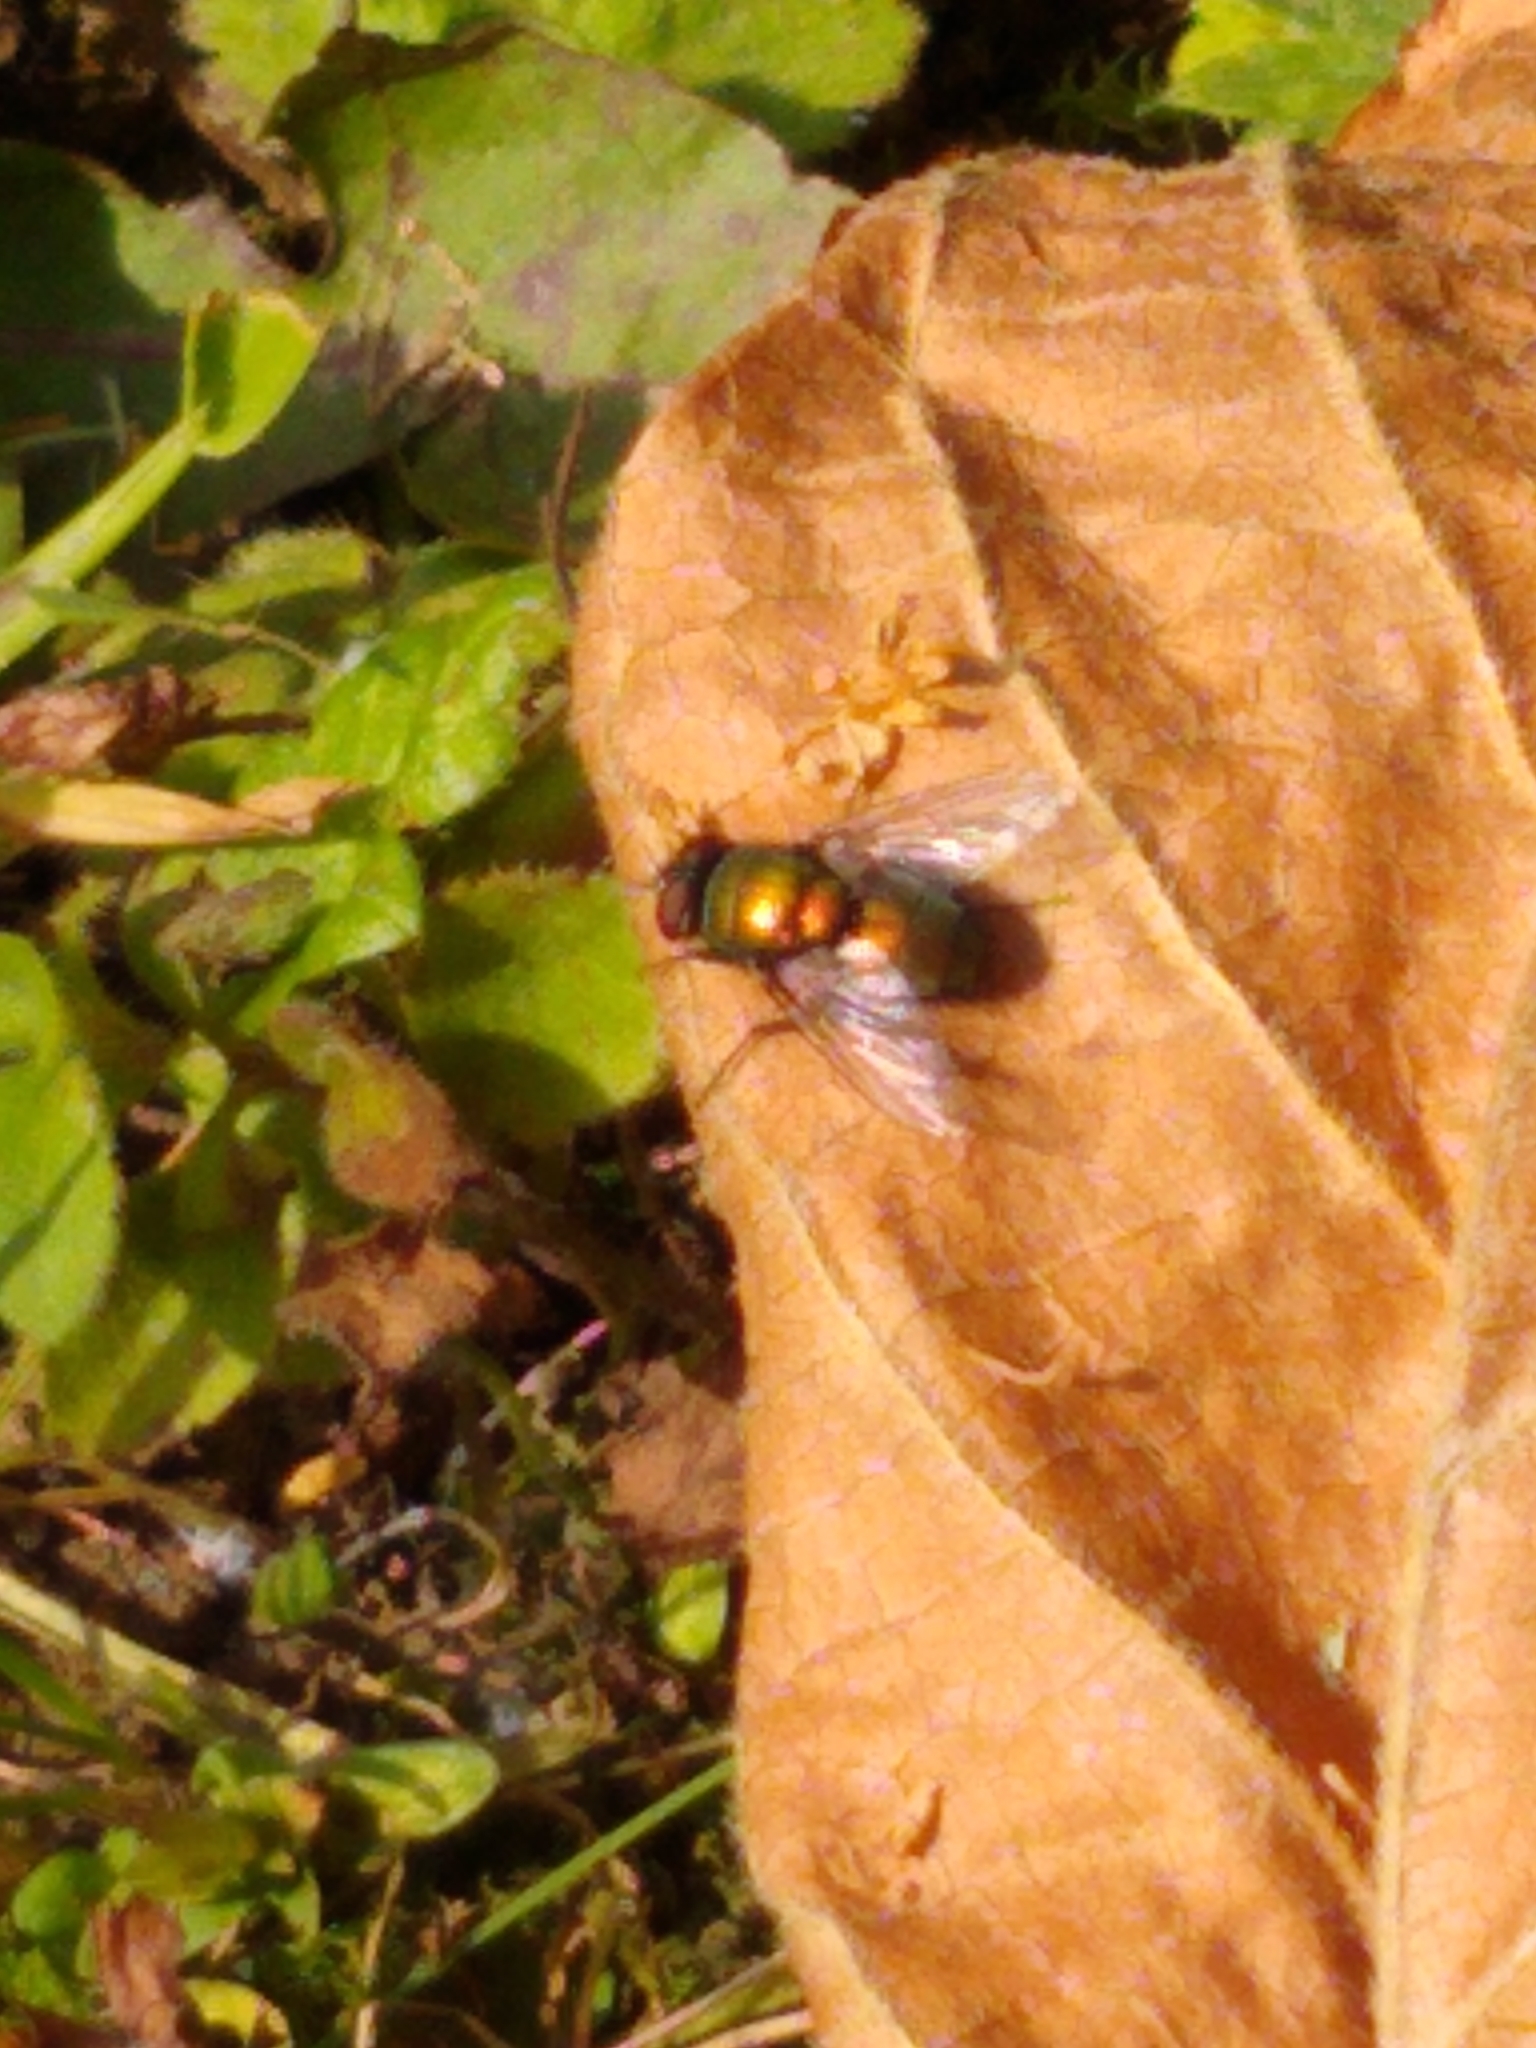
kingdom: Animalia
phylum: Arthropoda
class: Insecta
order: Diptera
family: Calliphoridae
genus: Lucilia
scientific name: Lucilia
